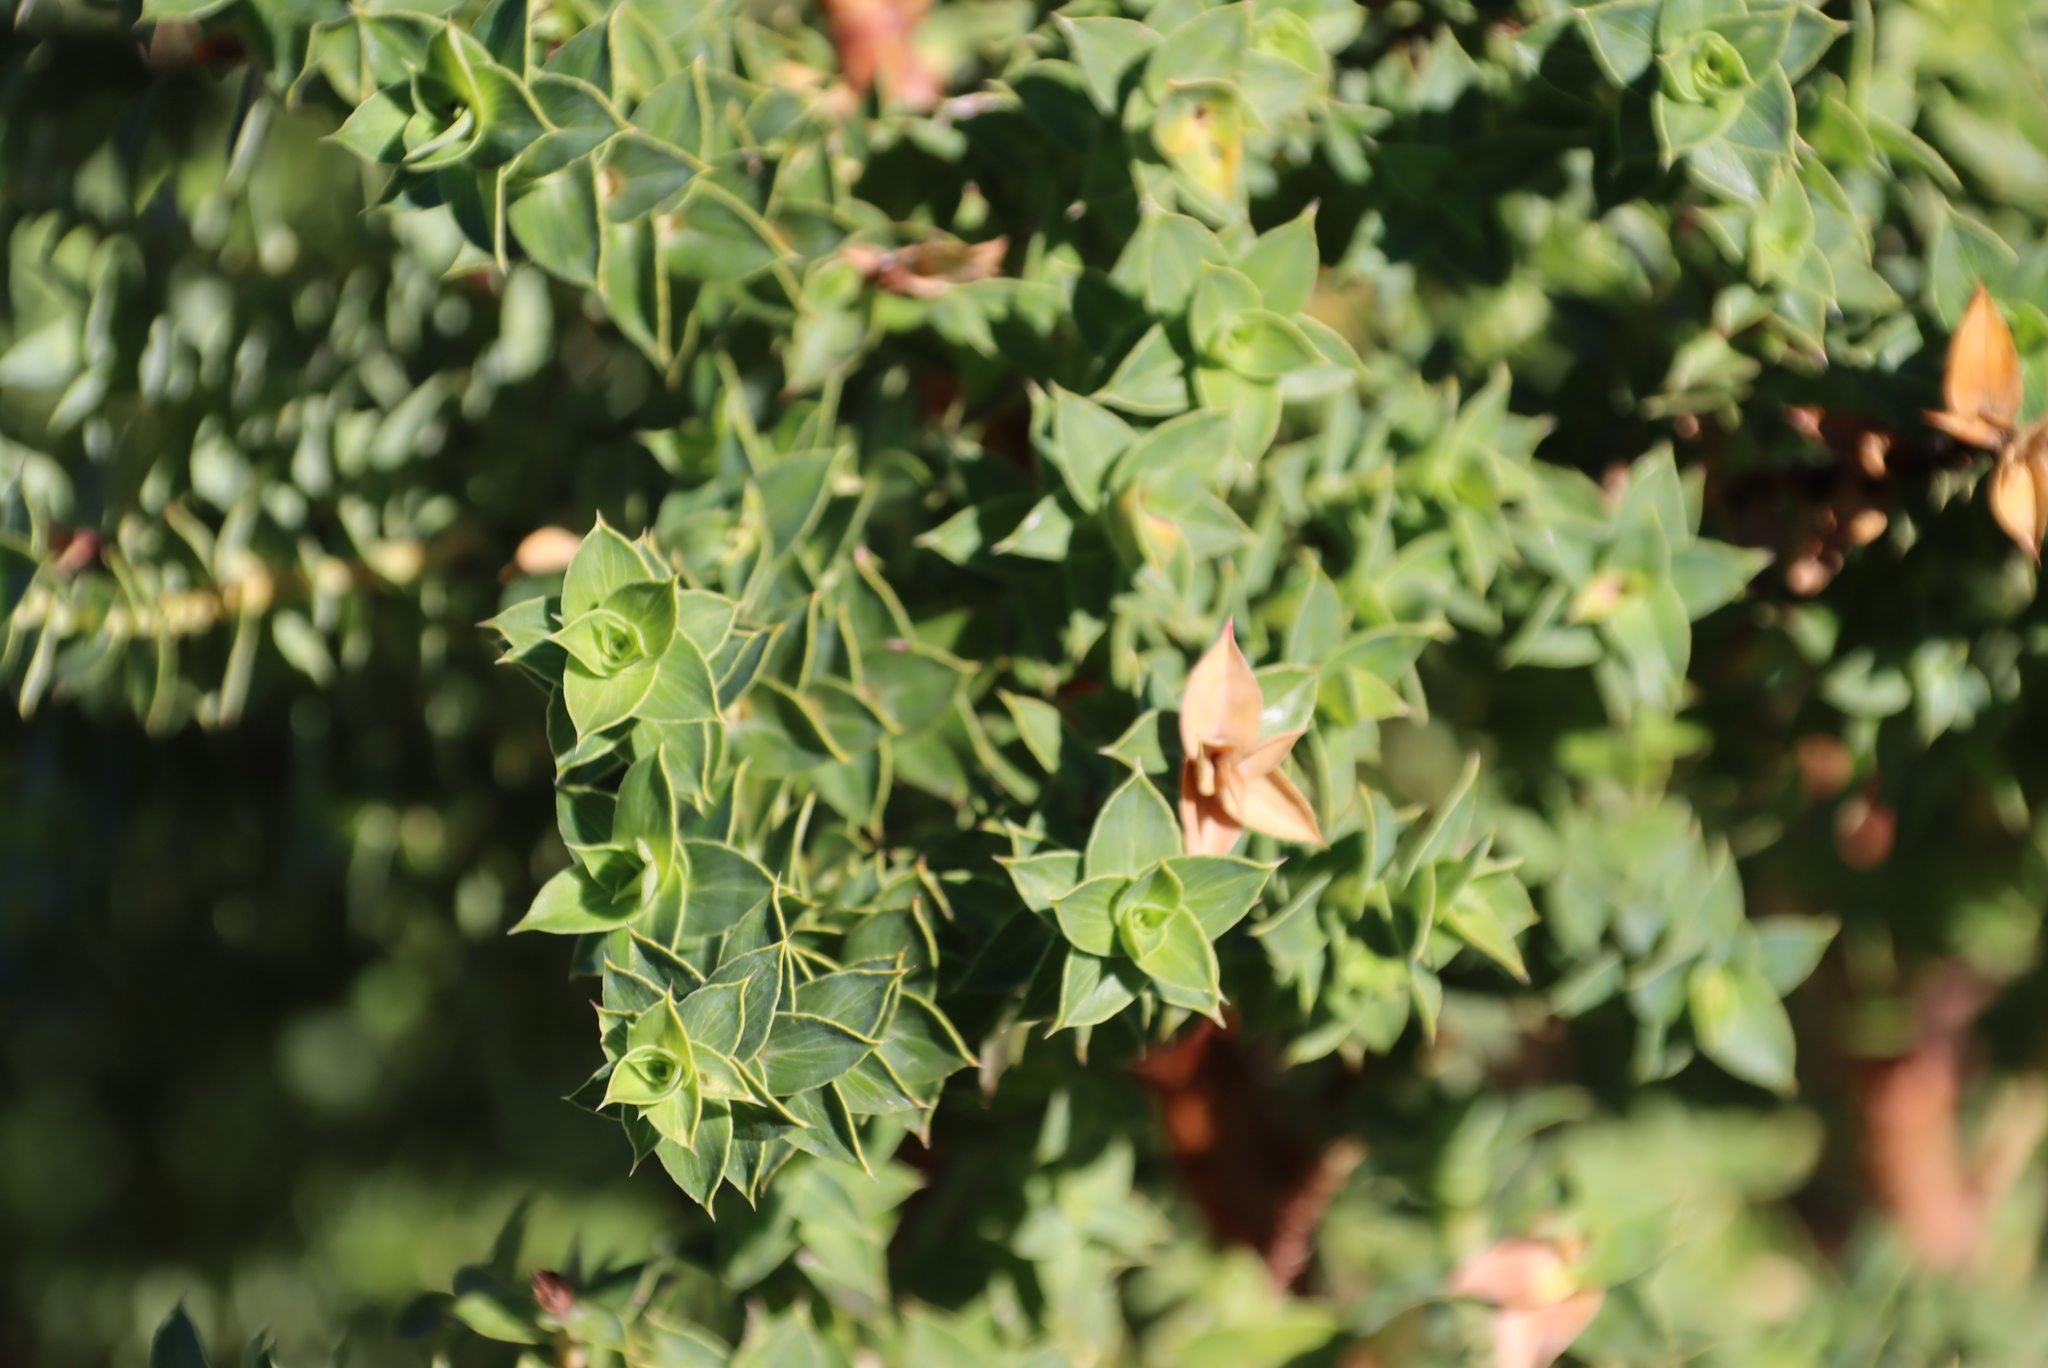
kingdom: Plantae
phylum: Tracheophyta
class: Magnoliopsida
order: Rosales
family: Rosaceae
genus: Cliffortia
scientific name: Cliffortia ilicifolia
